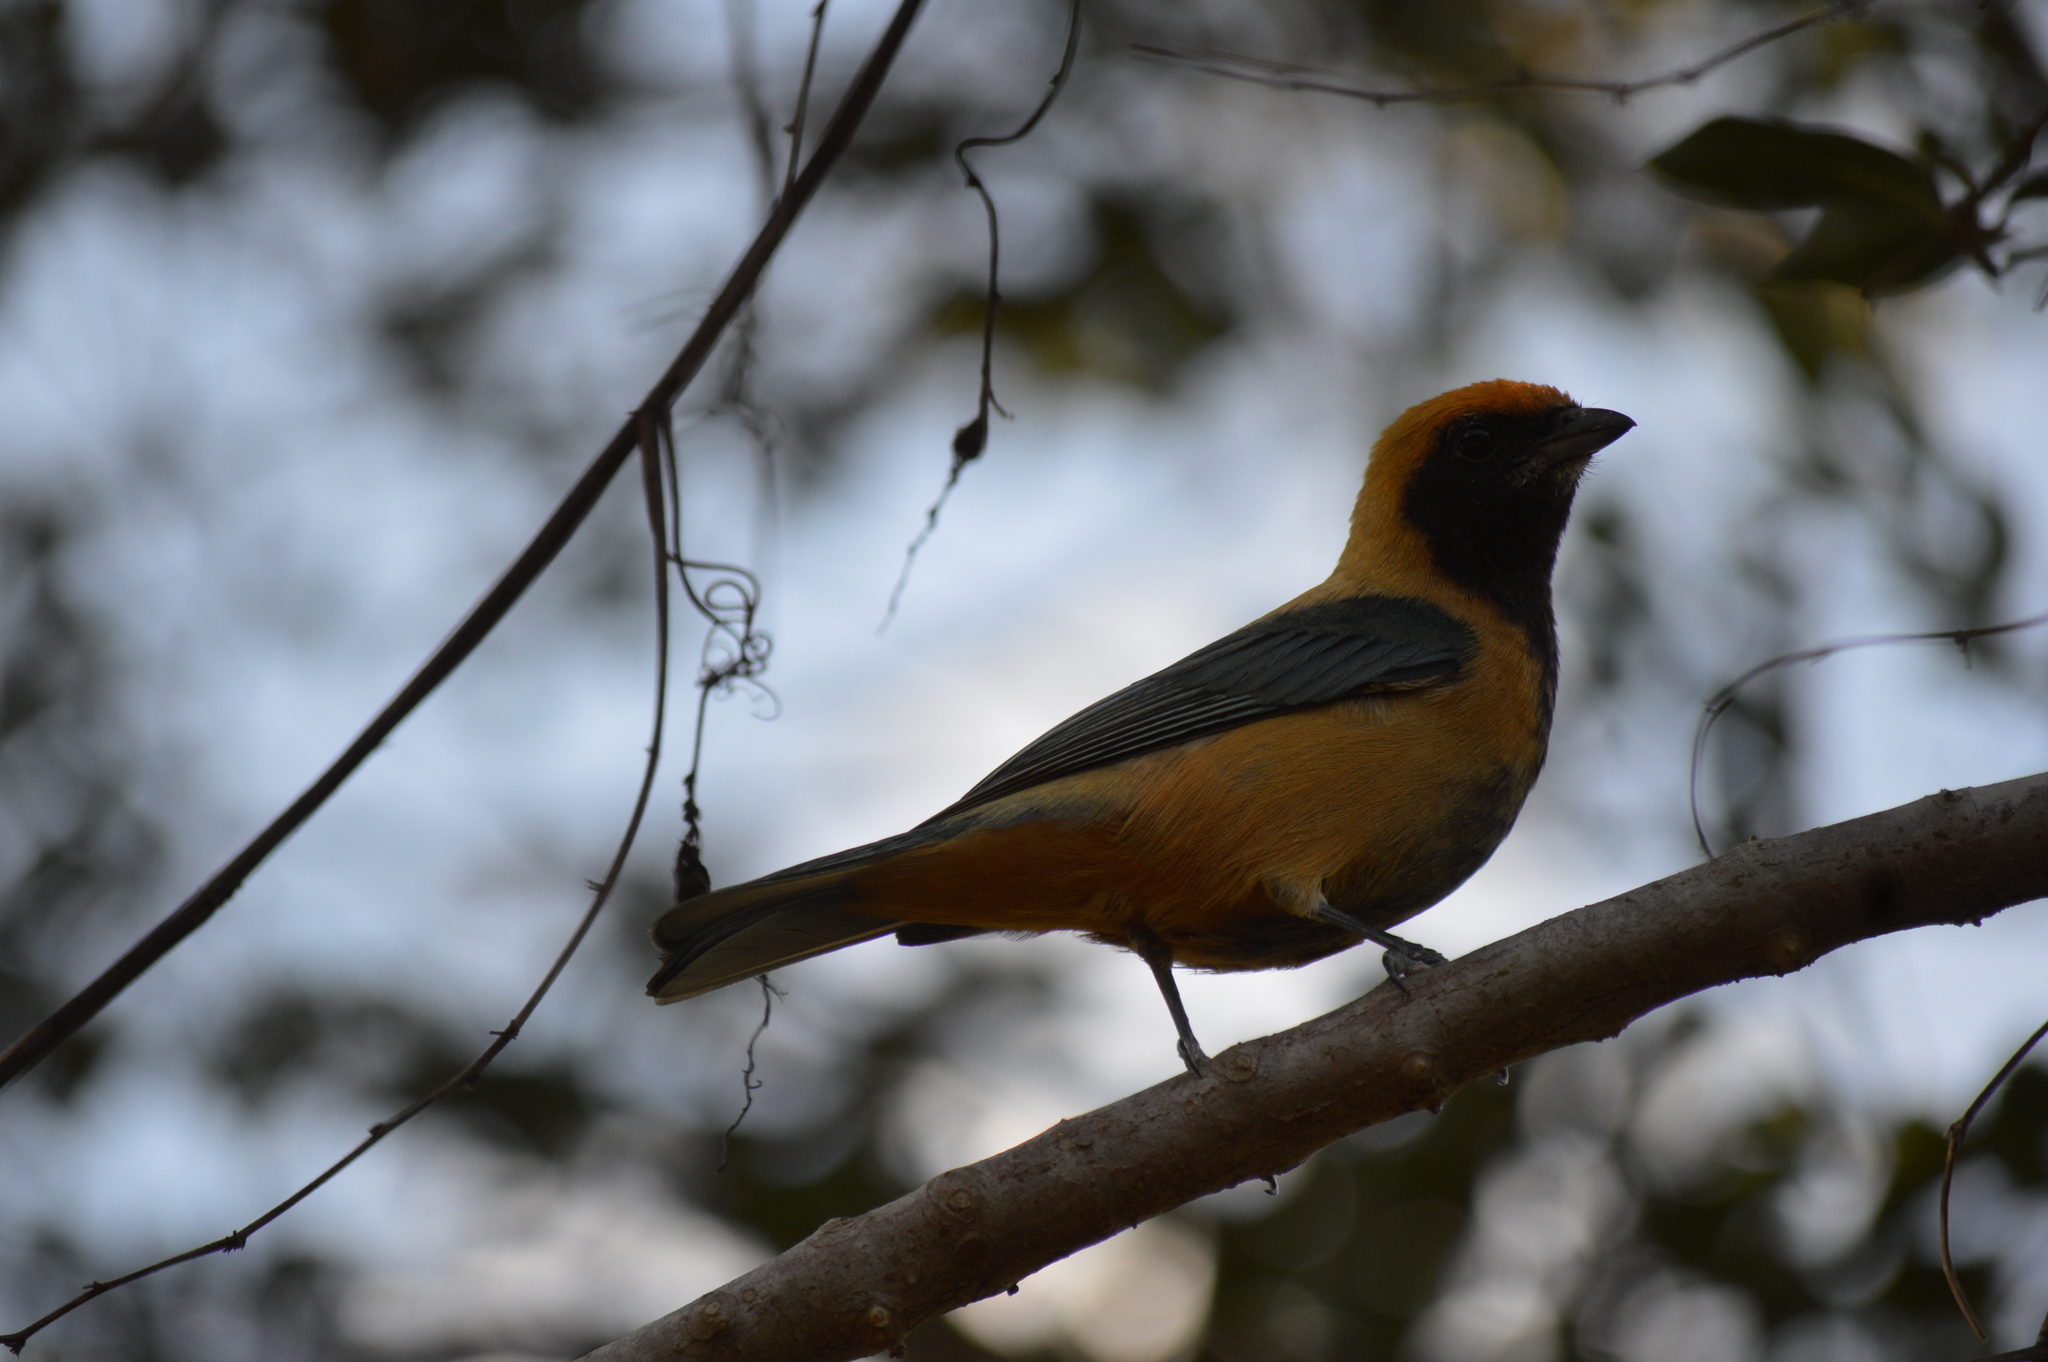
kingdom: Animalia
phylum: Chordata
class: Aves
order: Passeriformes
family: Thraupidae
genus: Stilpnia
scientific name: Stilpnia cayana
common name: Burnished-buff tanager
